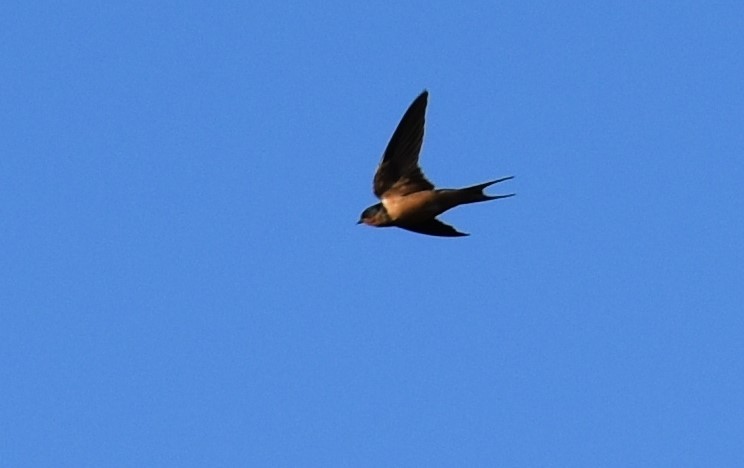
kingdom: Animalia
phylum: Chordata
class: Aves
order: Passeriformes
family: Hirundinidae
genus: Hirundo
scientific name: Hirundo rustica
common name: Barn swallow
